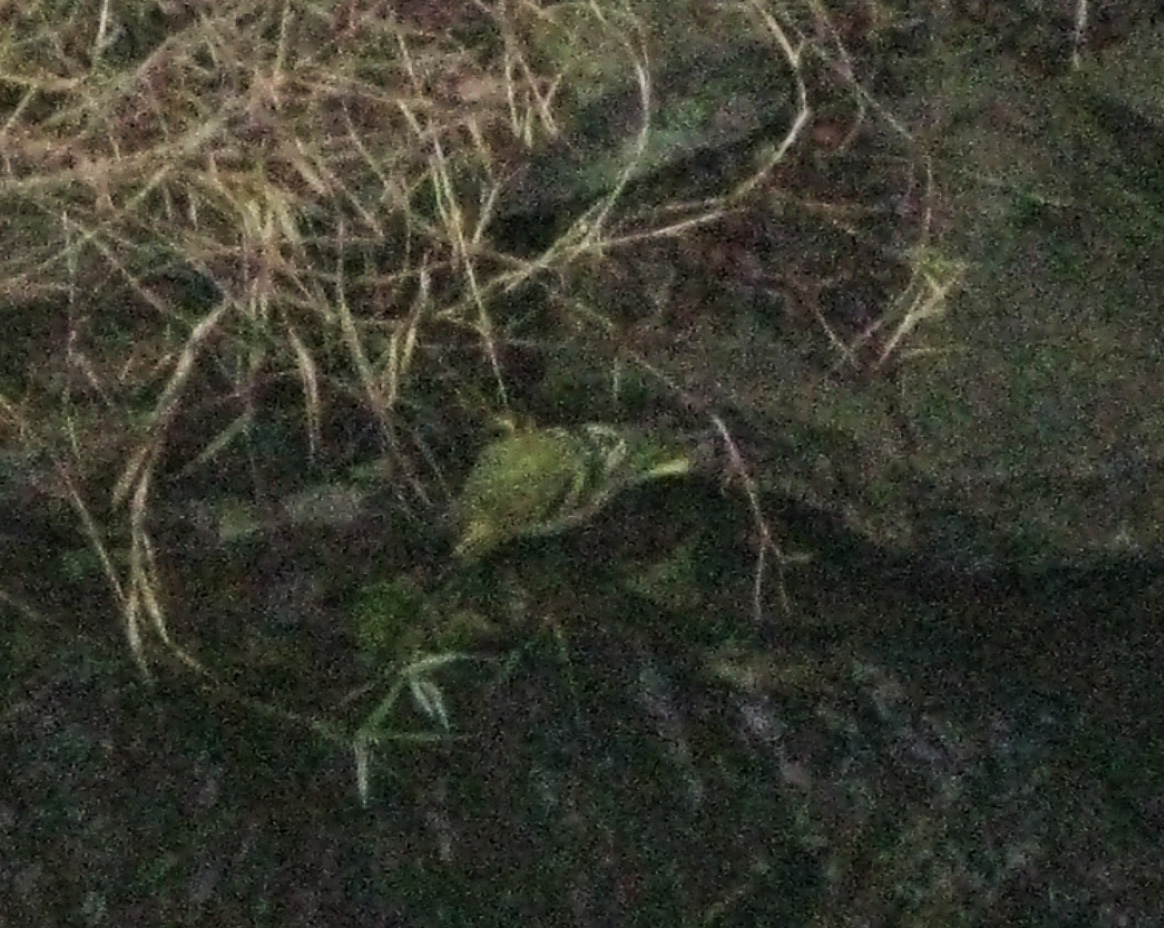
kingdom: Animalia
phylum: Chordata
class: Aves
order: Passeriformes
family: Fringillidae
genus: Spinus
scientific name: Spinus spinus
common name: Eurasian siskin
